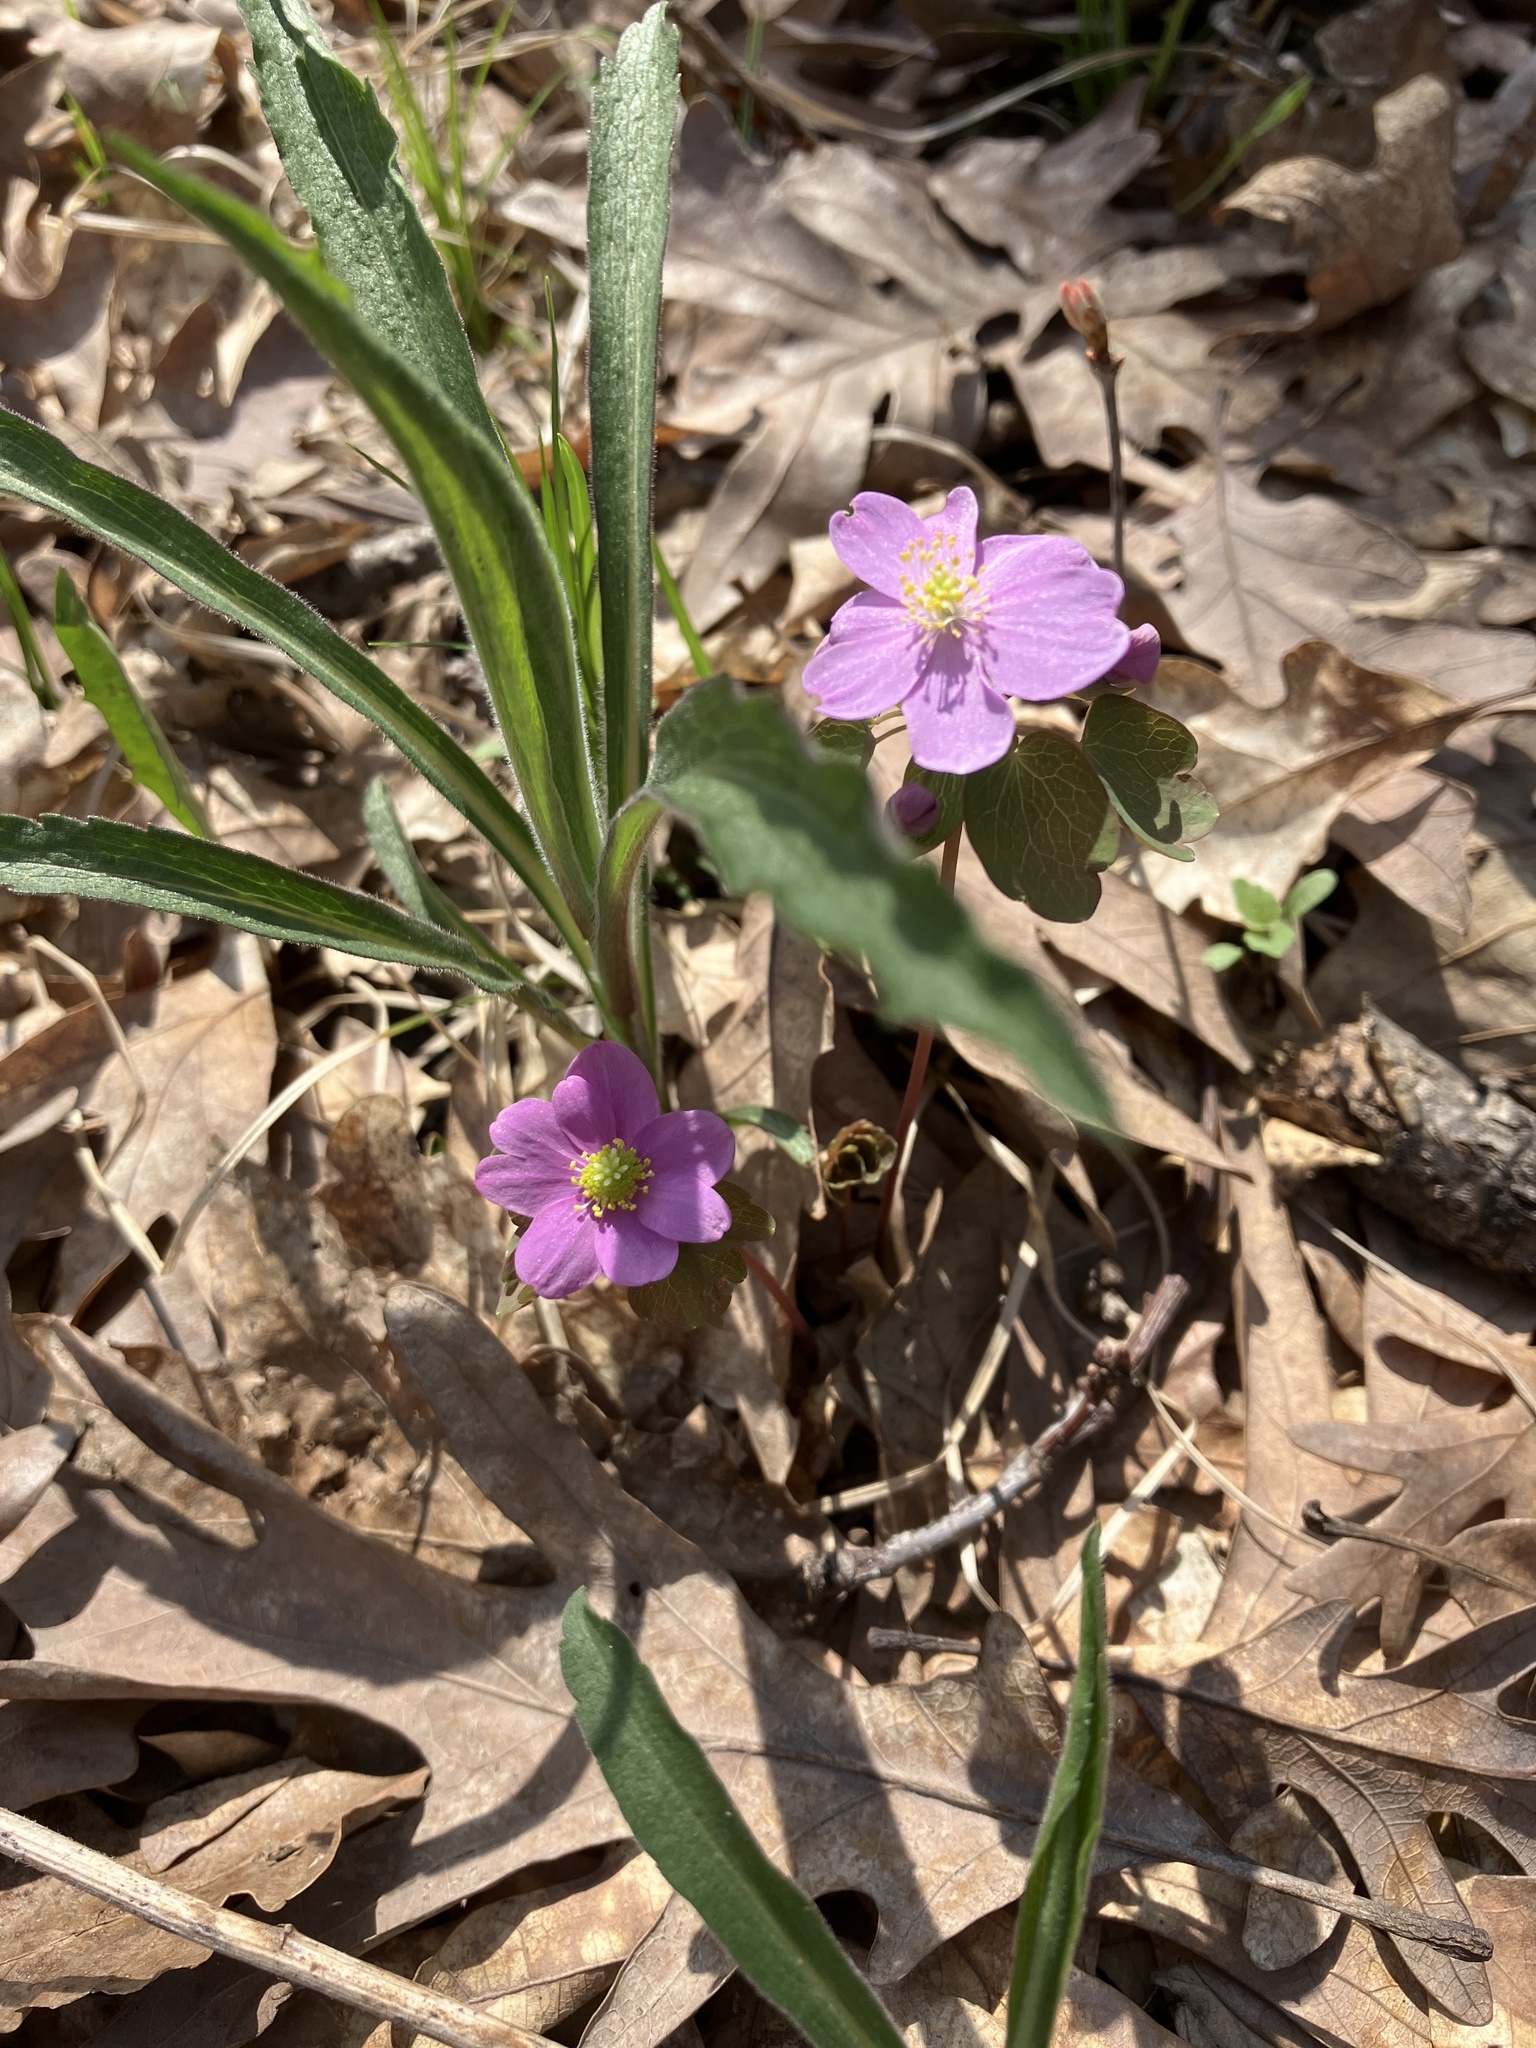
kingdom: Plantae
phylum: Tracheophyta
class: Magnoliopsida
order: Ranunculales
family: Ranunculaceae
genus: Thalictrum
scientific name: Thalictrum thalictroides
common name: Rue-anemone
